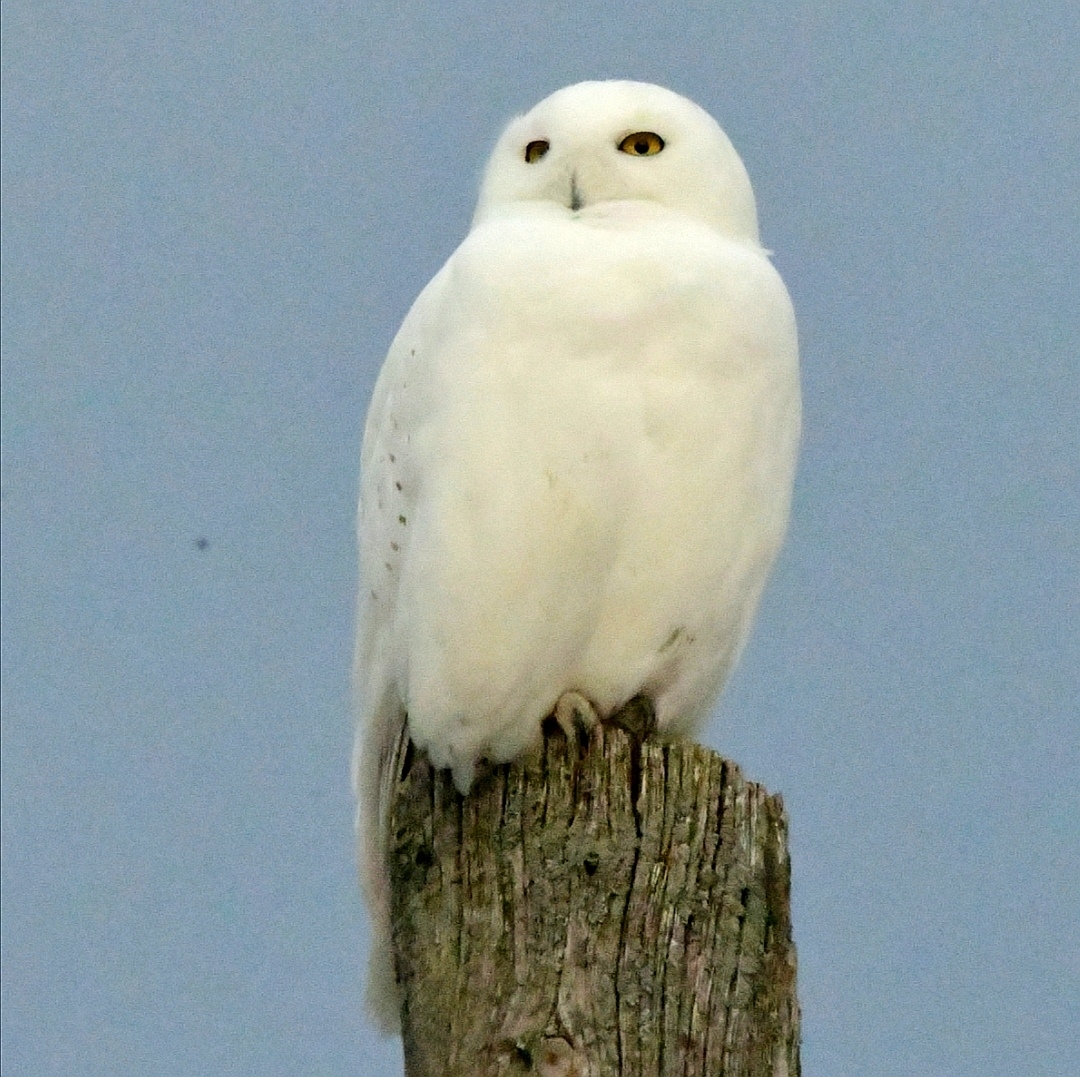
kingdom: Animalia
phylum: Chordata
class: Aves
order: Strigiformes
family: Strigidae
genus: Bubo
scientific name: Bubo scandiacus
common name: Snowy owl
